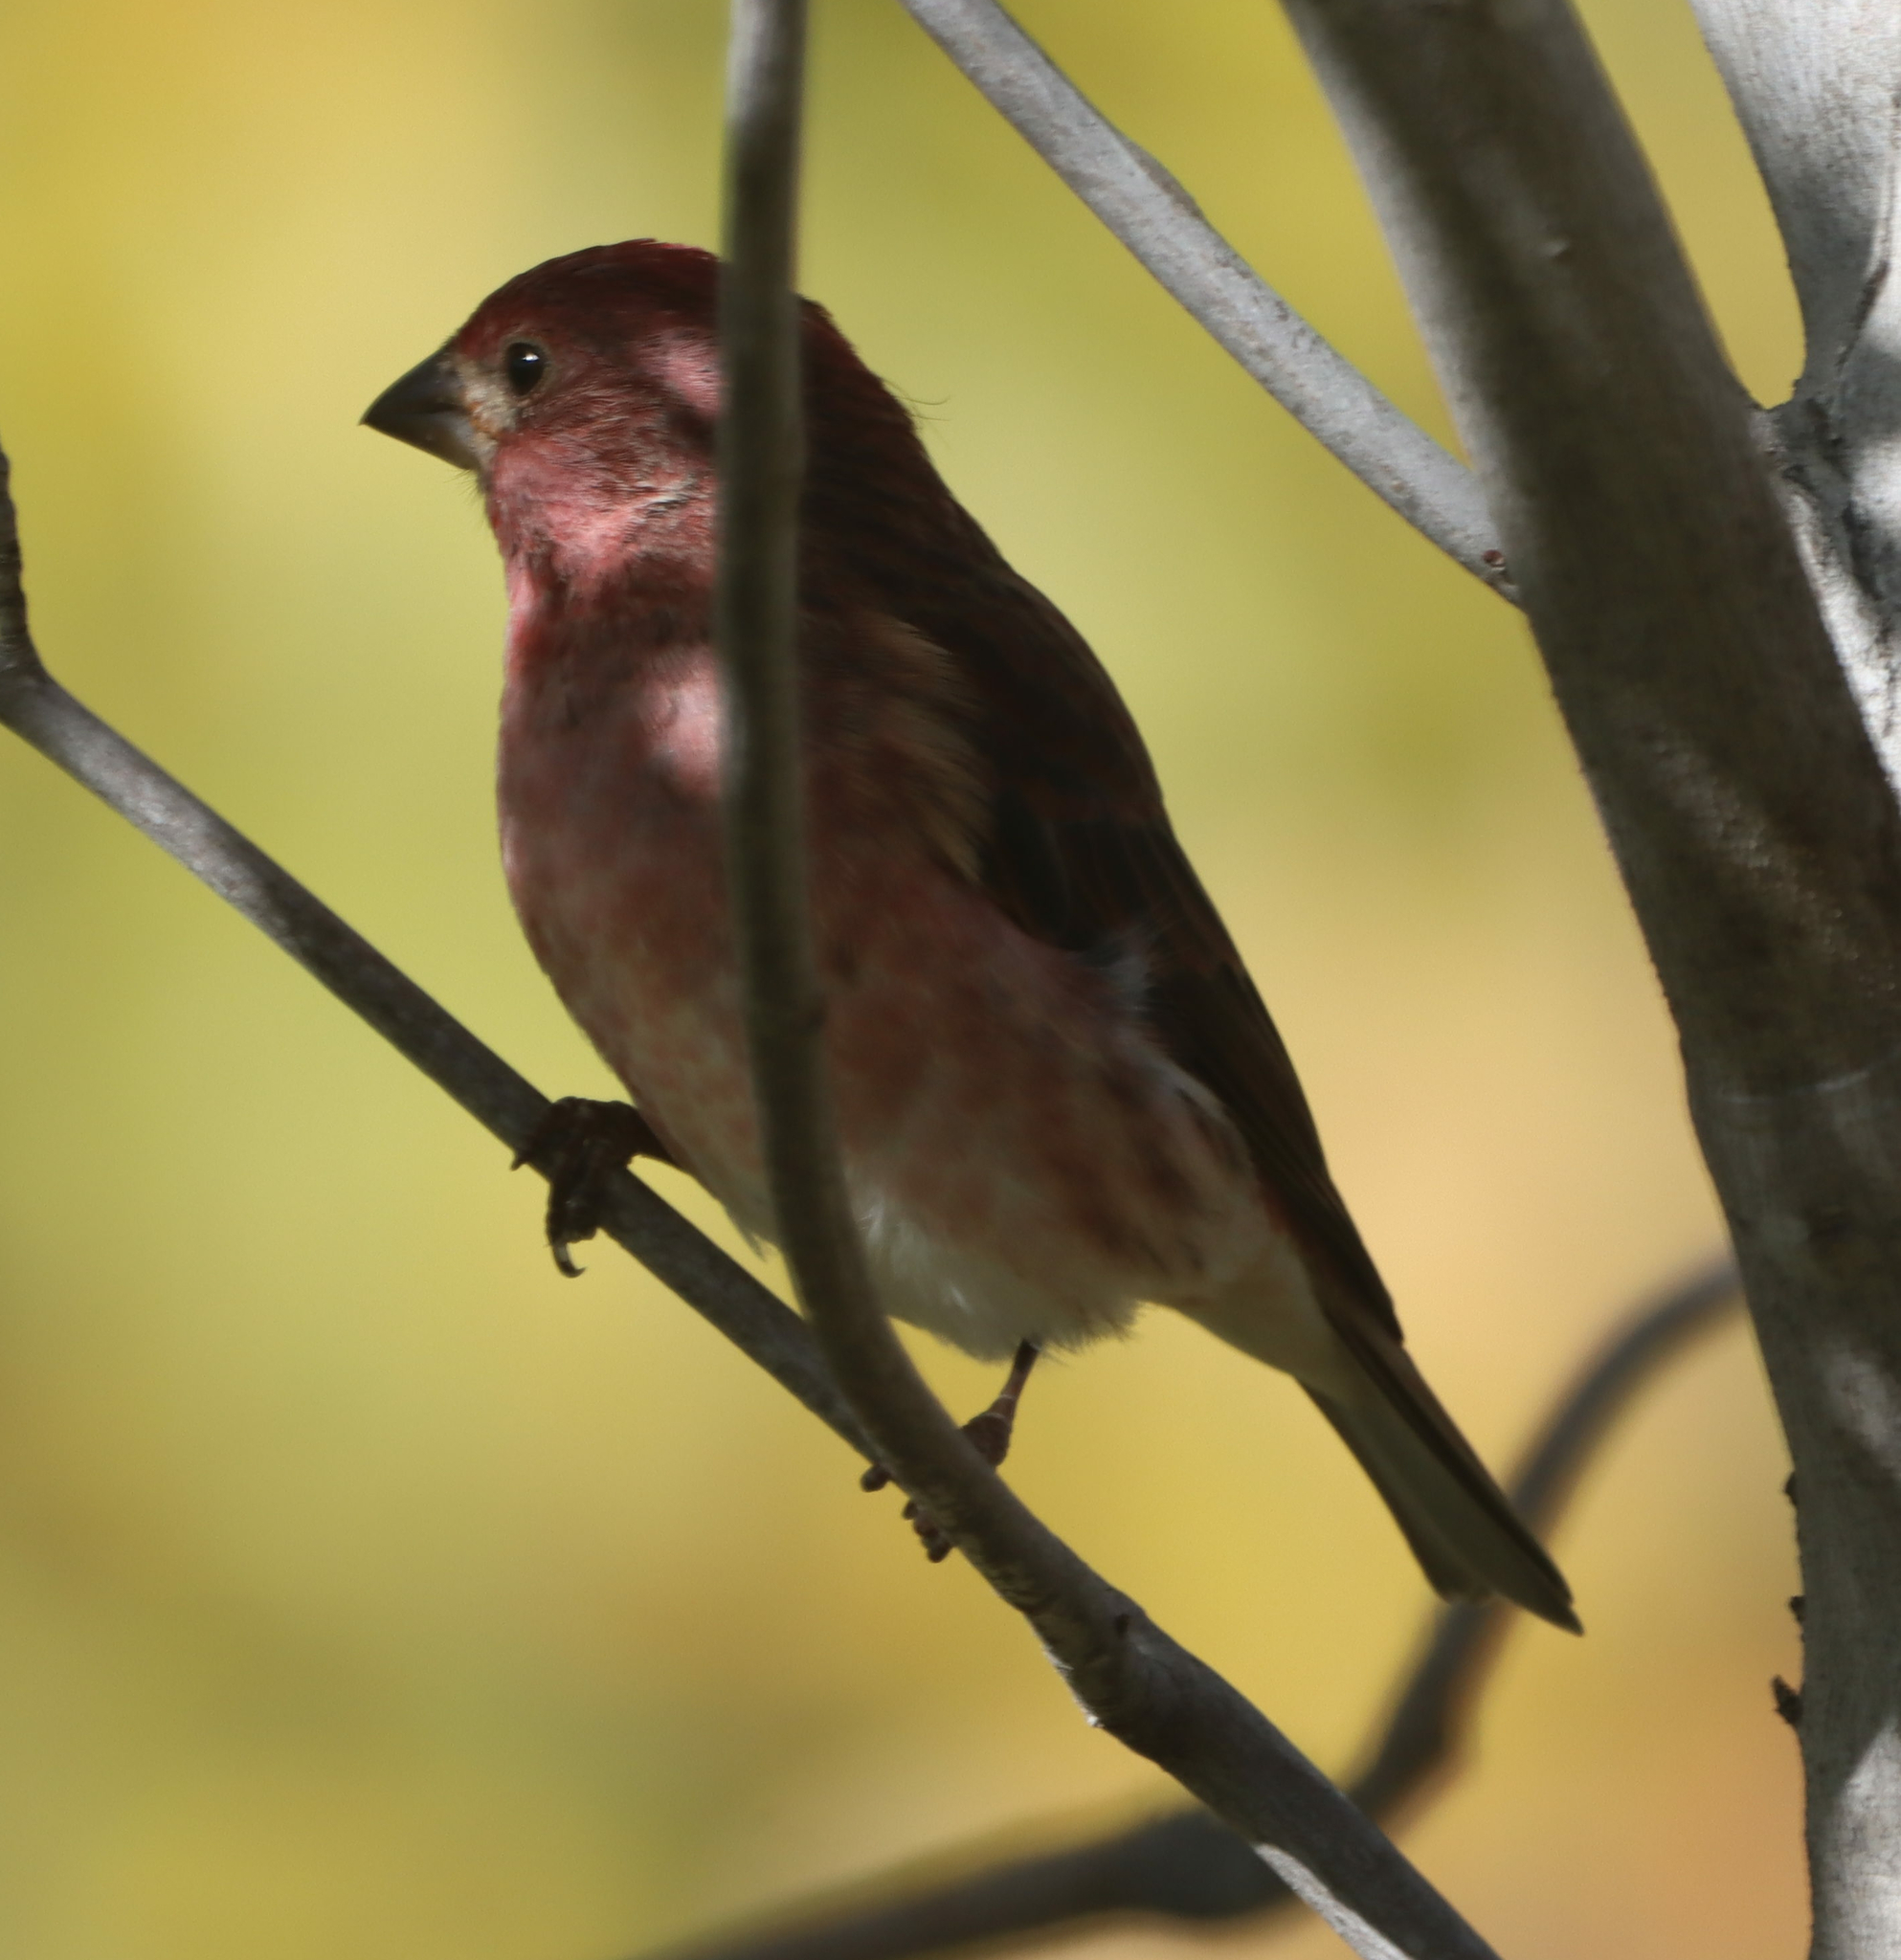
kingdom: Animalia
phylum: Chordata
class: Aves
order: Passeriformes
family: Fringillidae
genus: Haemorhous
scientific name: Haemorhous purpureus
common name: Purple finch
